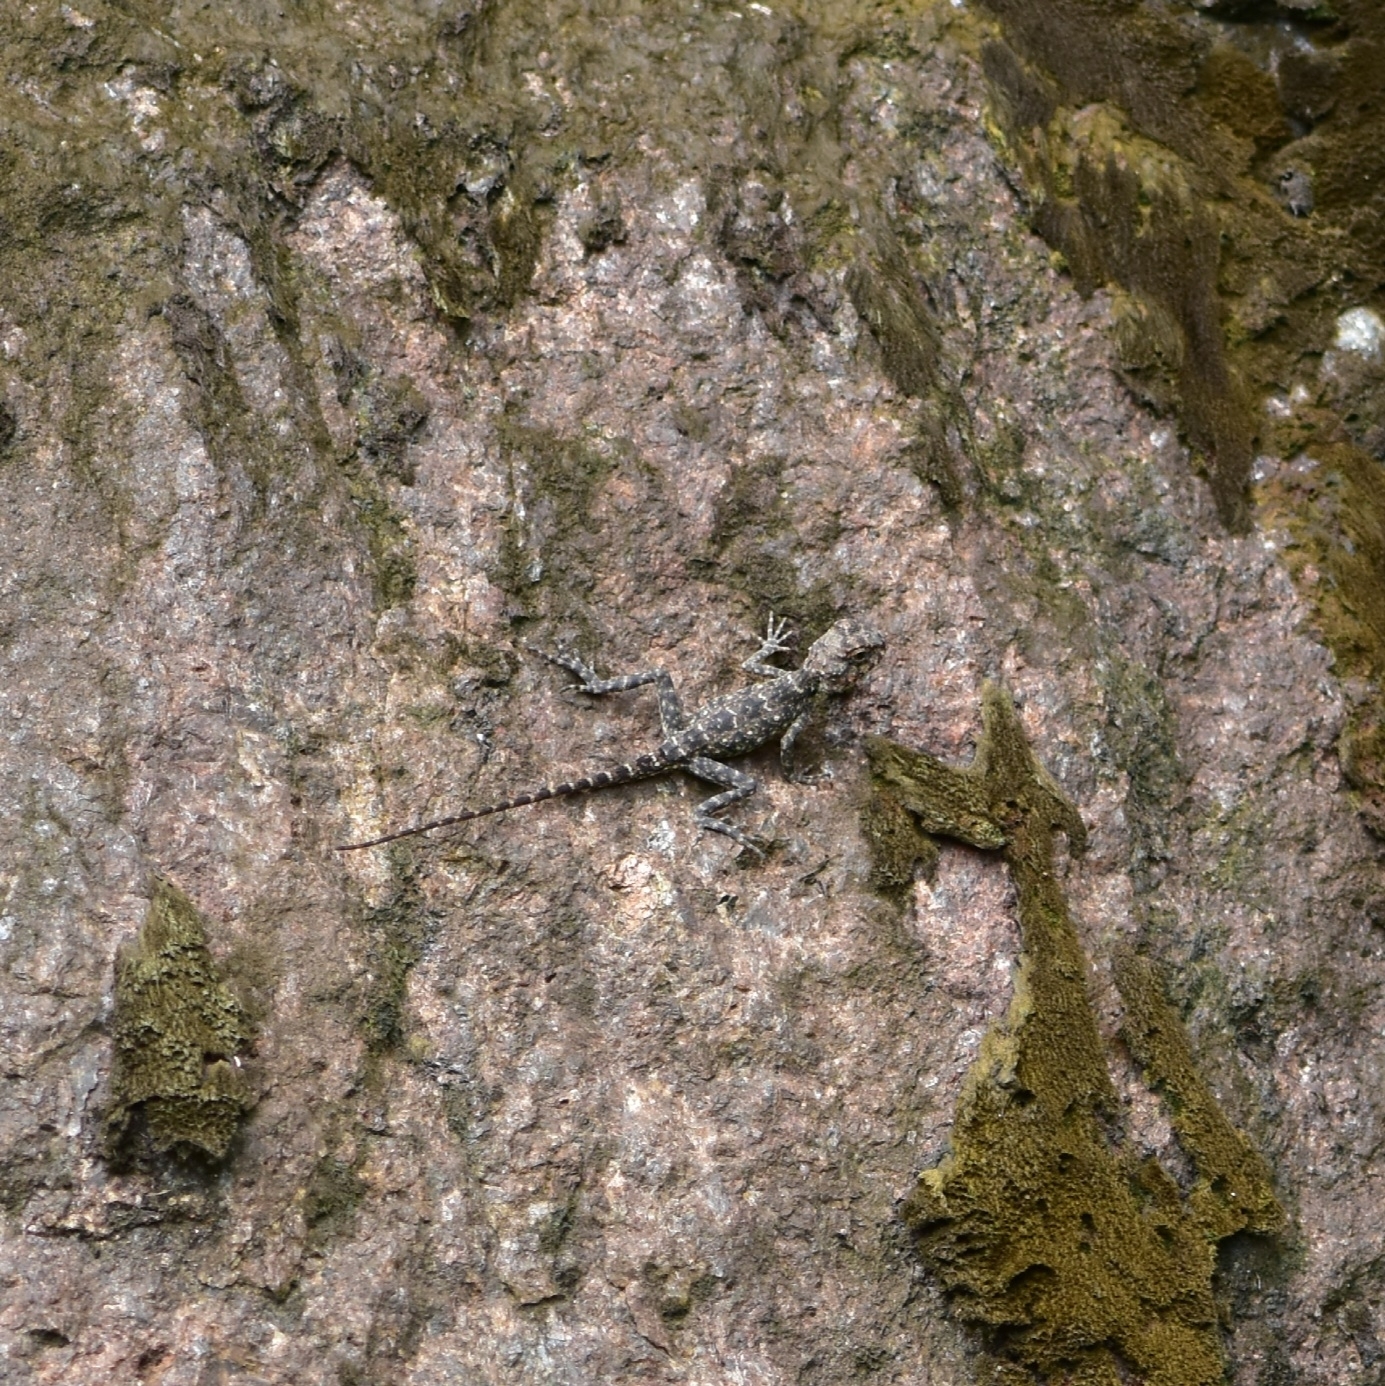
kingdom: Animalia
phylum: Chordata
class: Squamata
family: Agamidae
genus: Psammophilus
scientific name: Psammophilus dorsalis
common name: South indian rock agama
